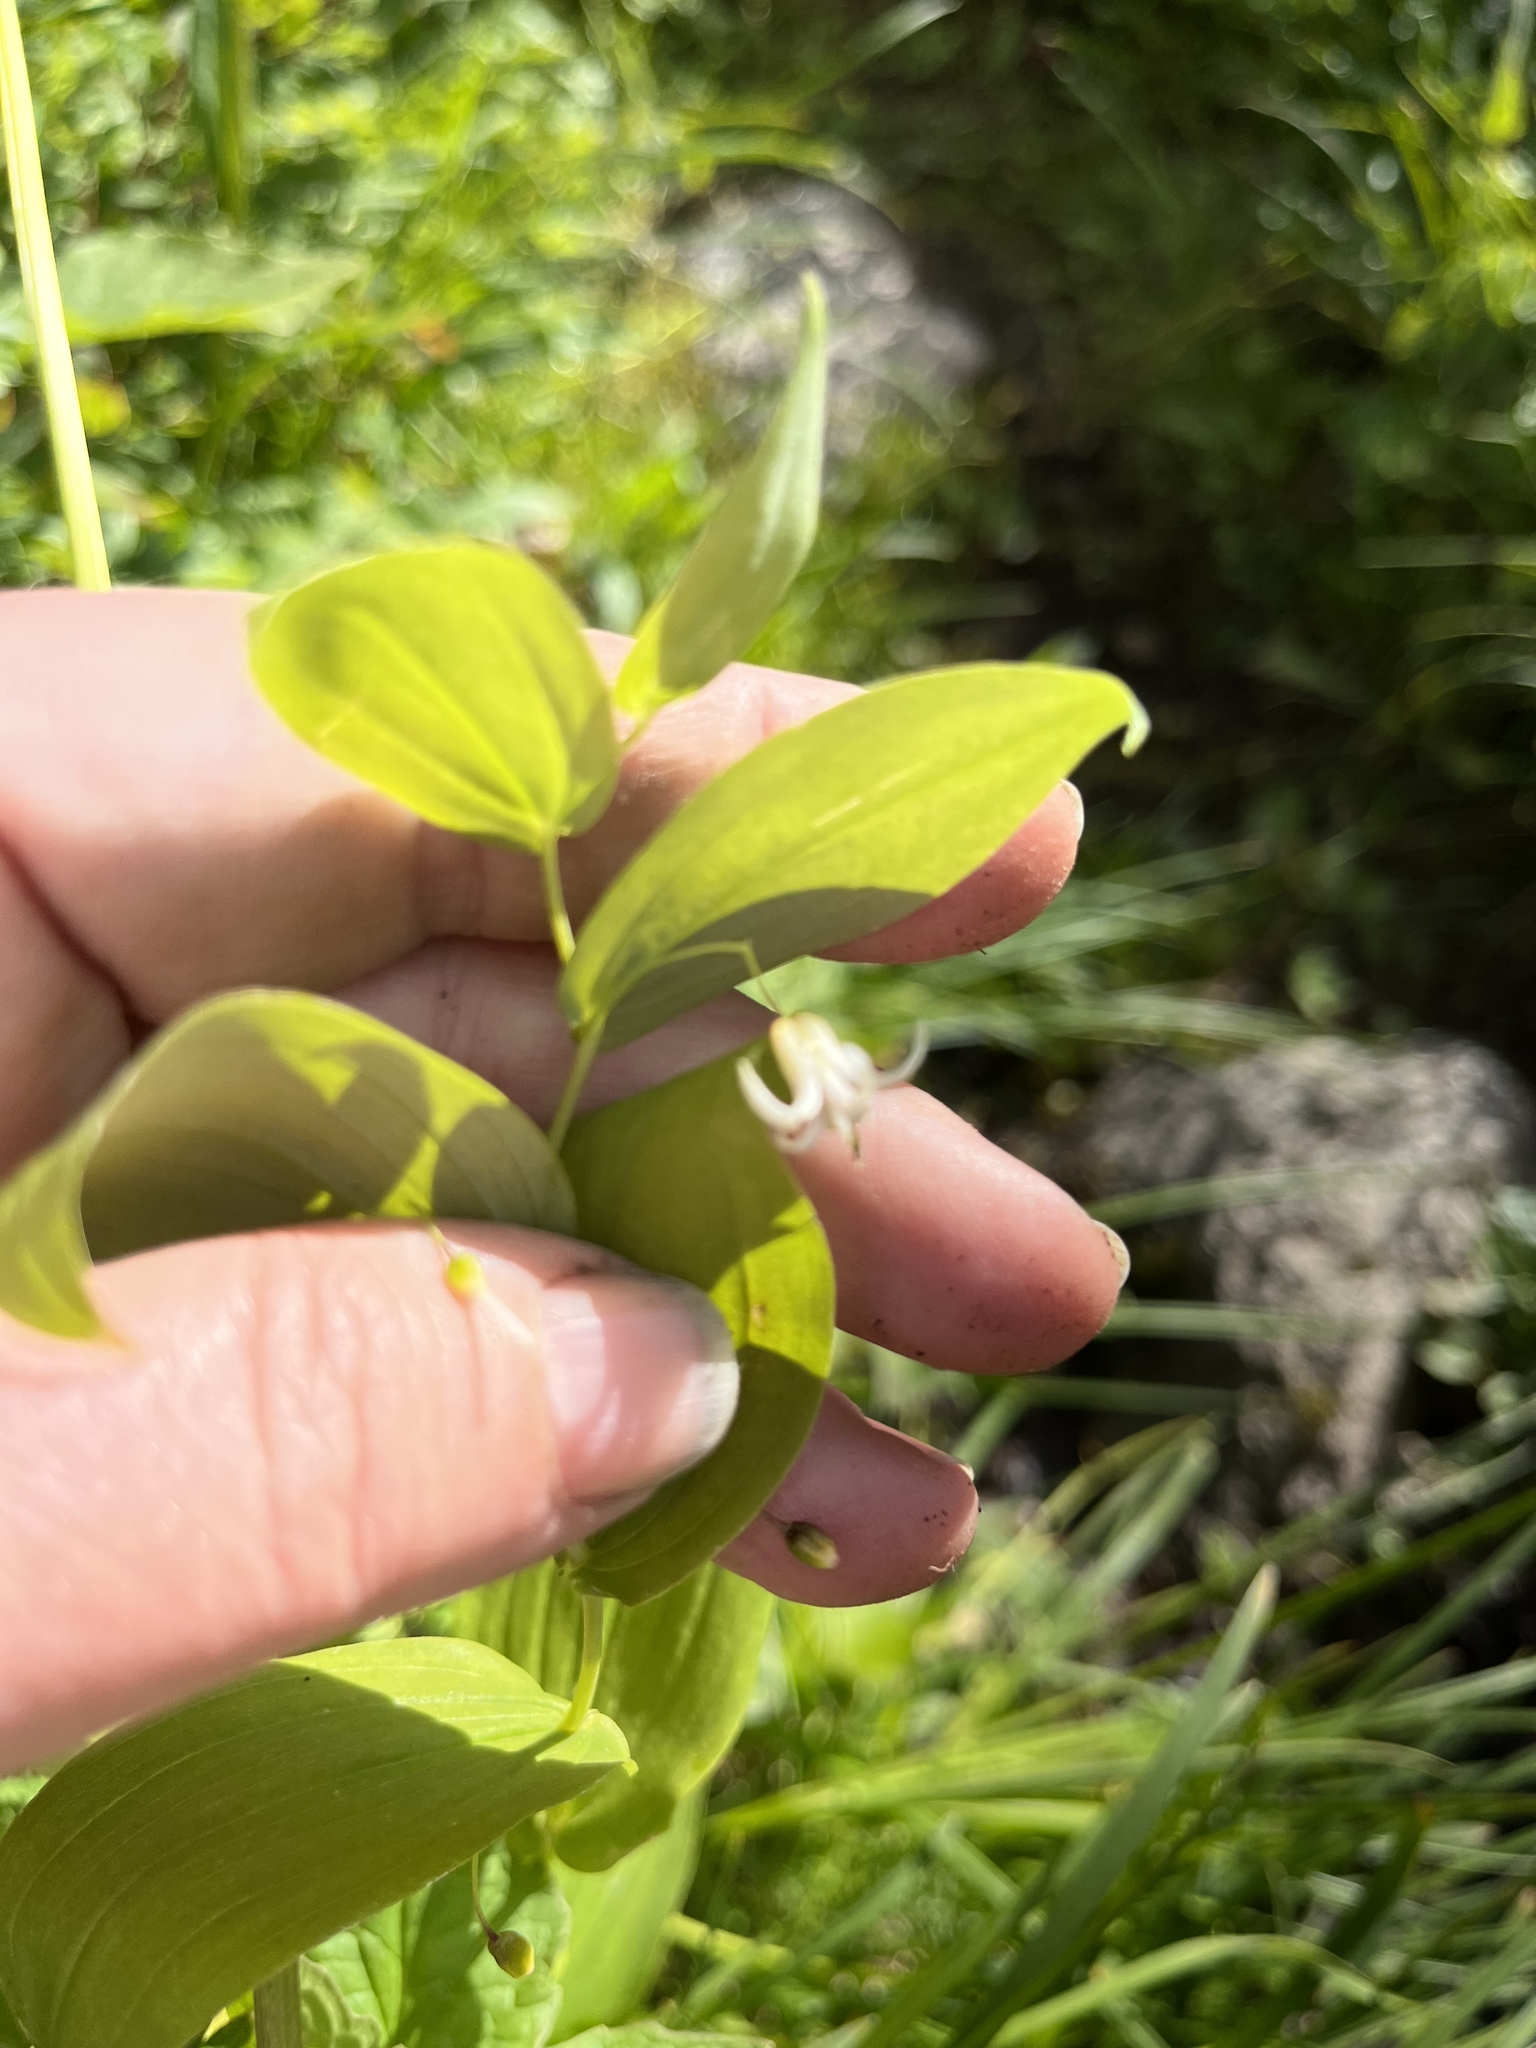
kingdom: Plantae
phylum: Tracheophyta
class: Liliopsida
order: Liliales
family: Liliaceae
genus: Streptopus
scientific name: Streptopus amplexifolius
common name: Clasp twisted stalk
